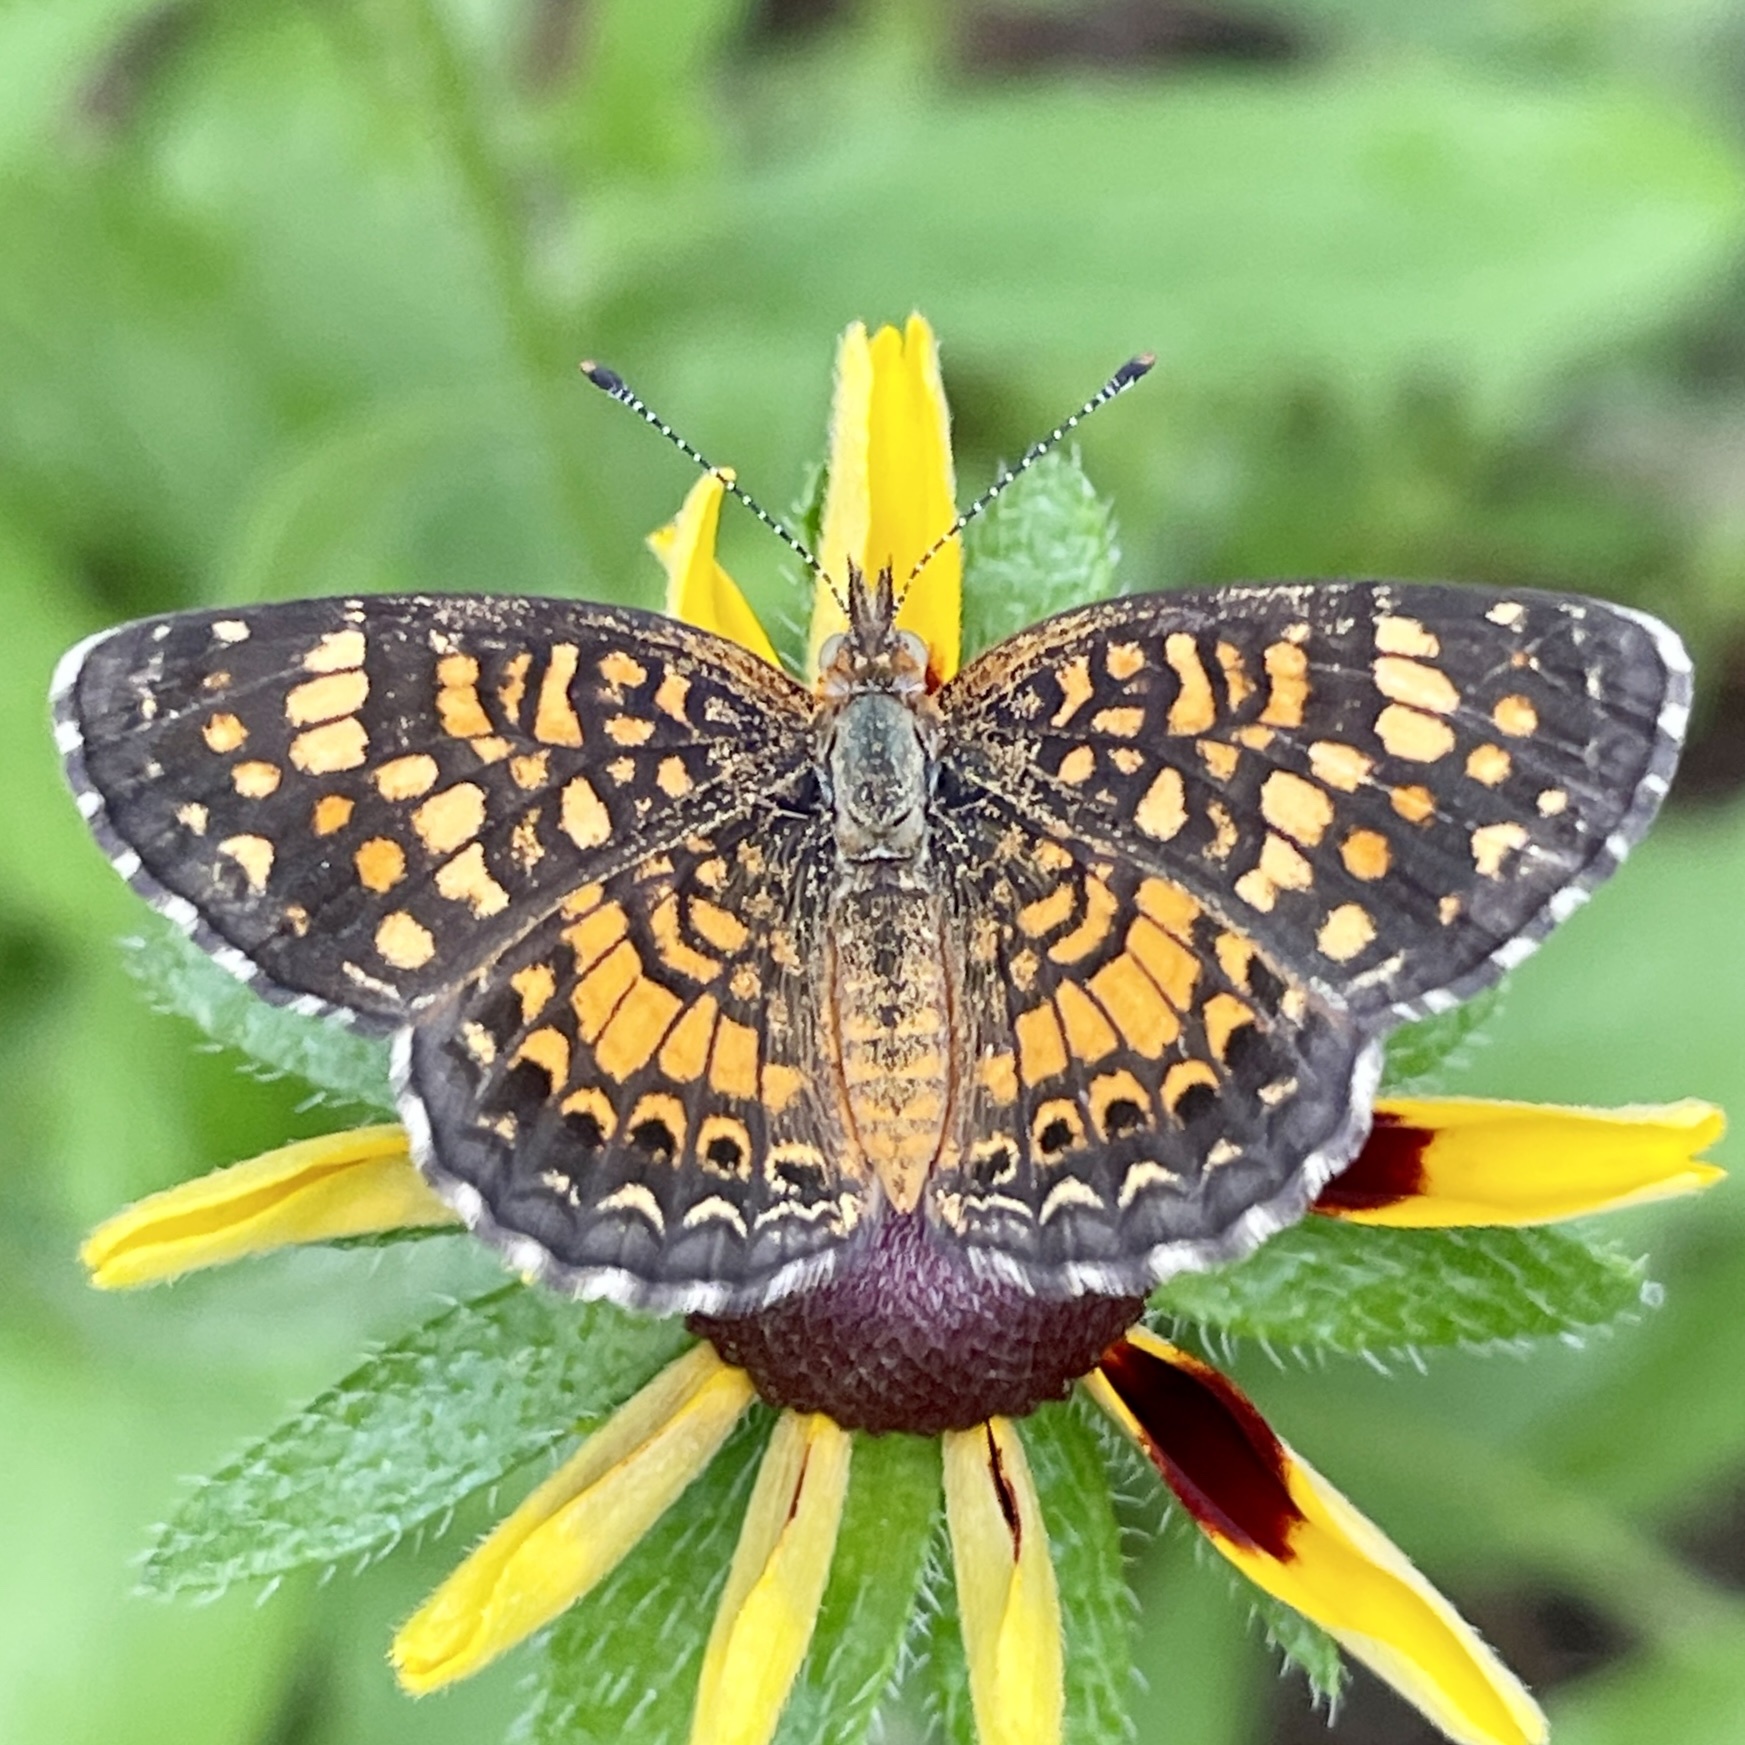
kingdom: Animalia
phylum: Arthropoda
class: Insecta
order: Lepidoptera
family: Nymphalidae
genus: Phyciodes
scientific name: Phyciodes vesta
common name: Vesta crescent
